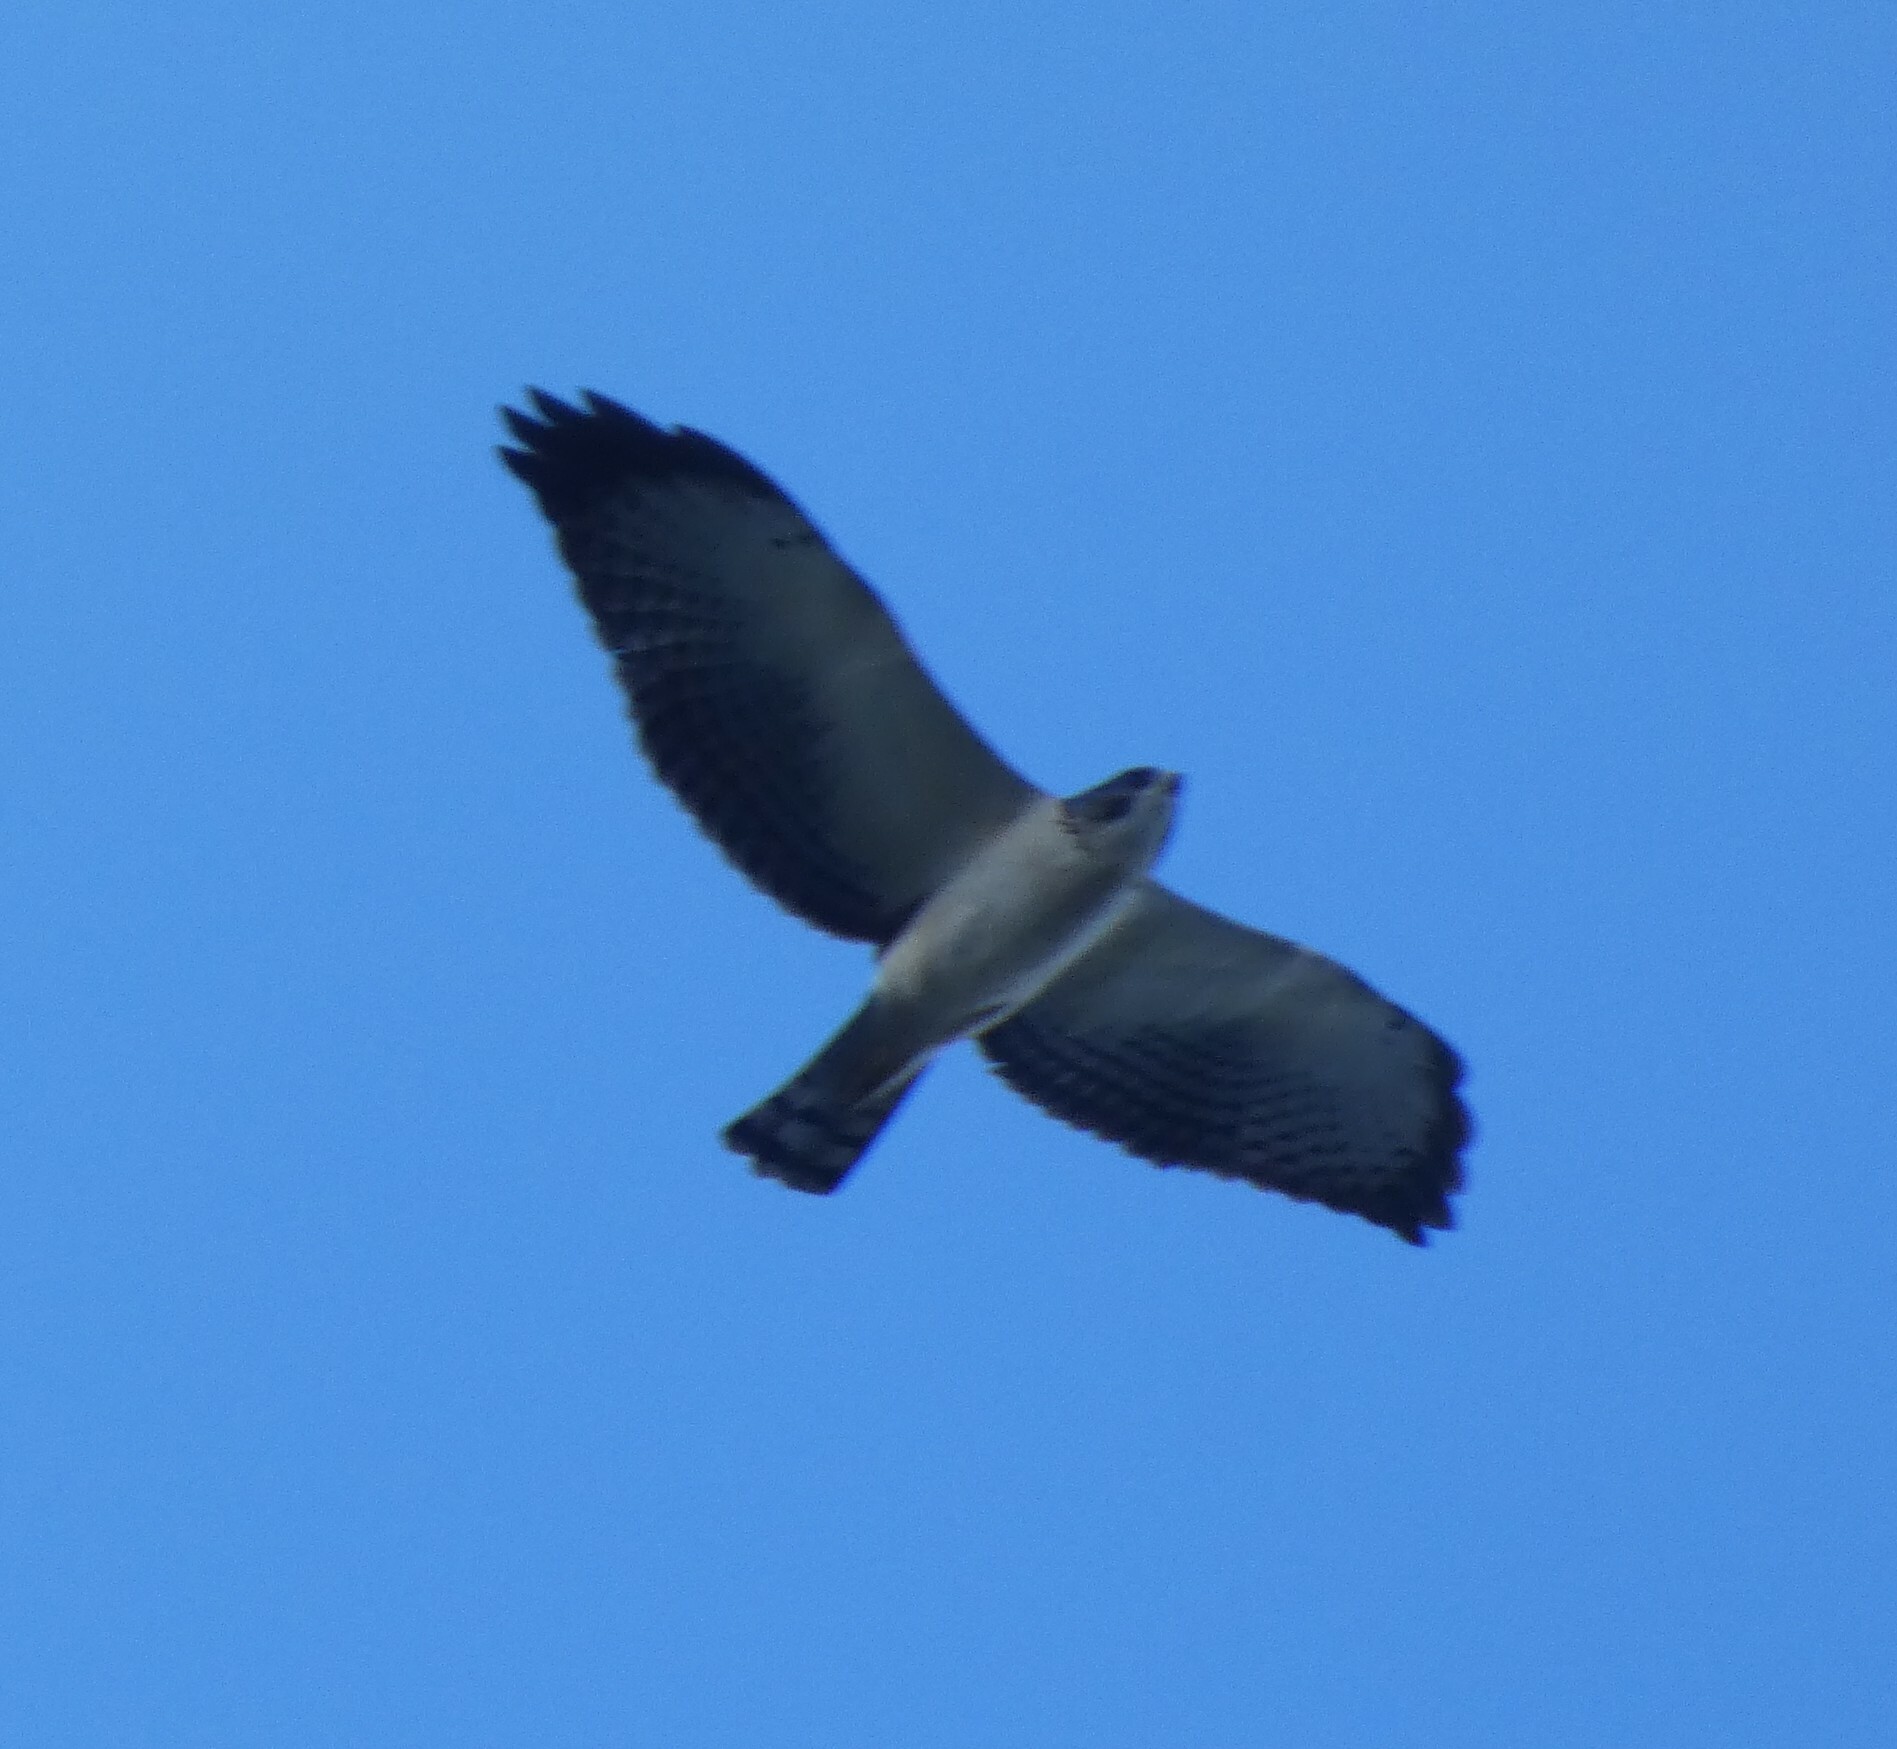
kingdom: Animalia
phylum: Chordata
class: Aves
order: Accipitriformes
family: Accipitridae
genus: Buteo
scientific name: Buteo brachyurus
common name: Short-tailed hawk
